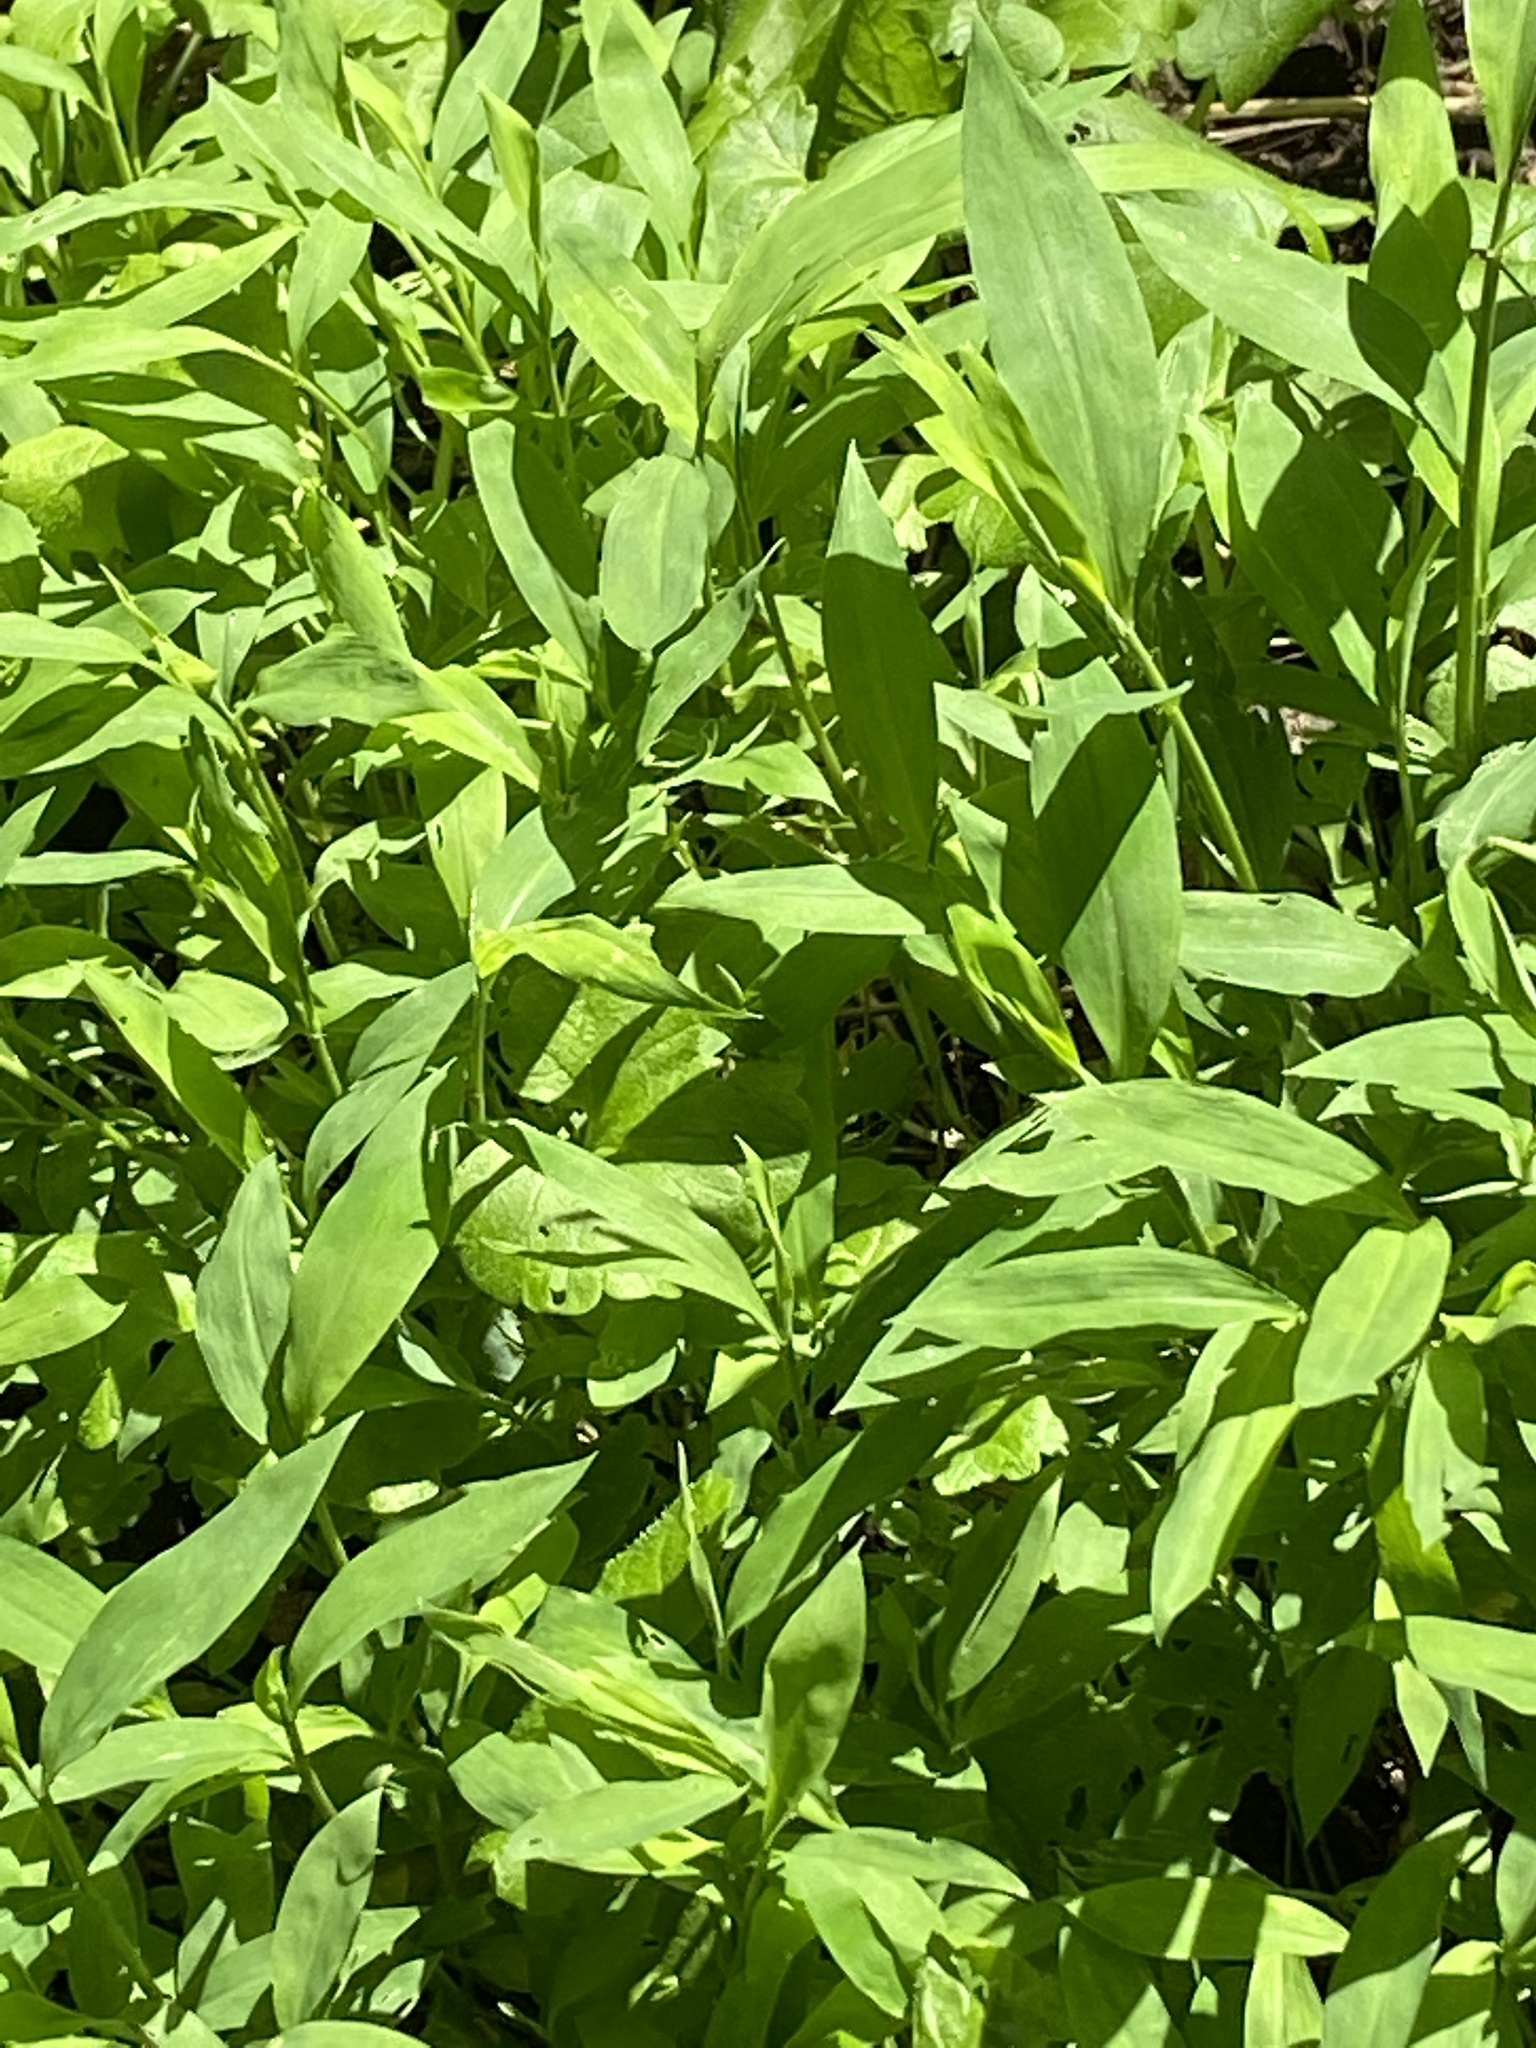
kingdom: Plantae
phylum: Tracheophyta
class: Liliopsida
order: Poales
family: Poaceae
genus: Microstegium
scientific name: Microstegium vimineum
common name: Japanese stiltgrass
